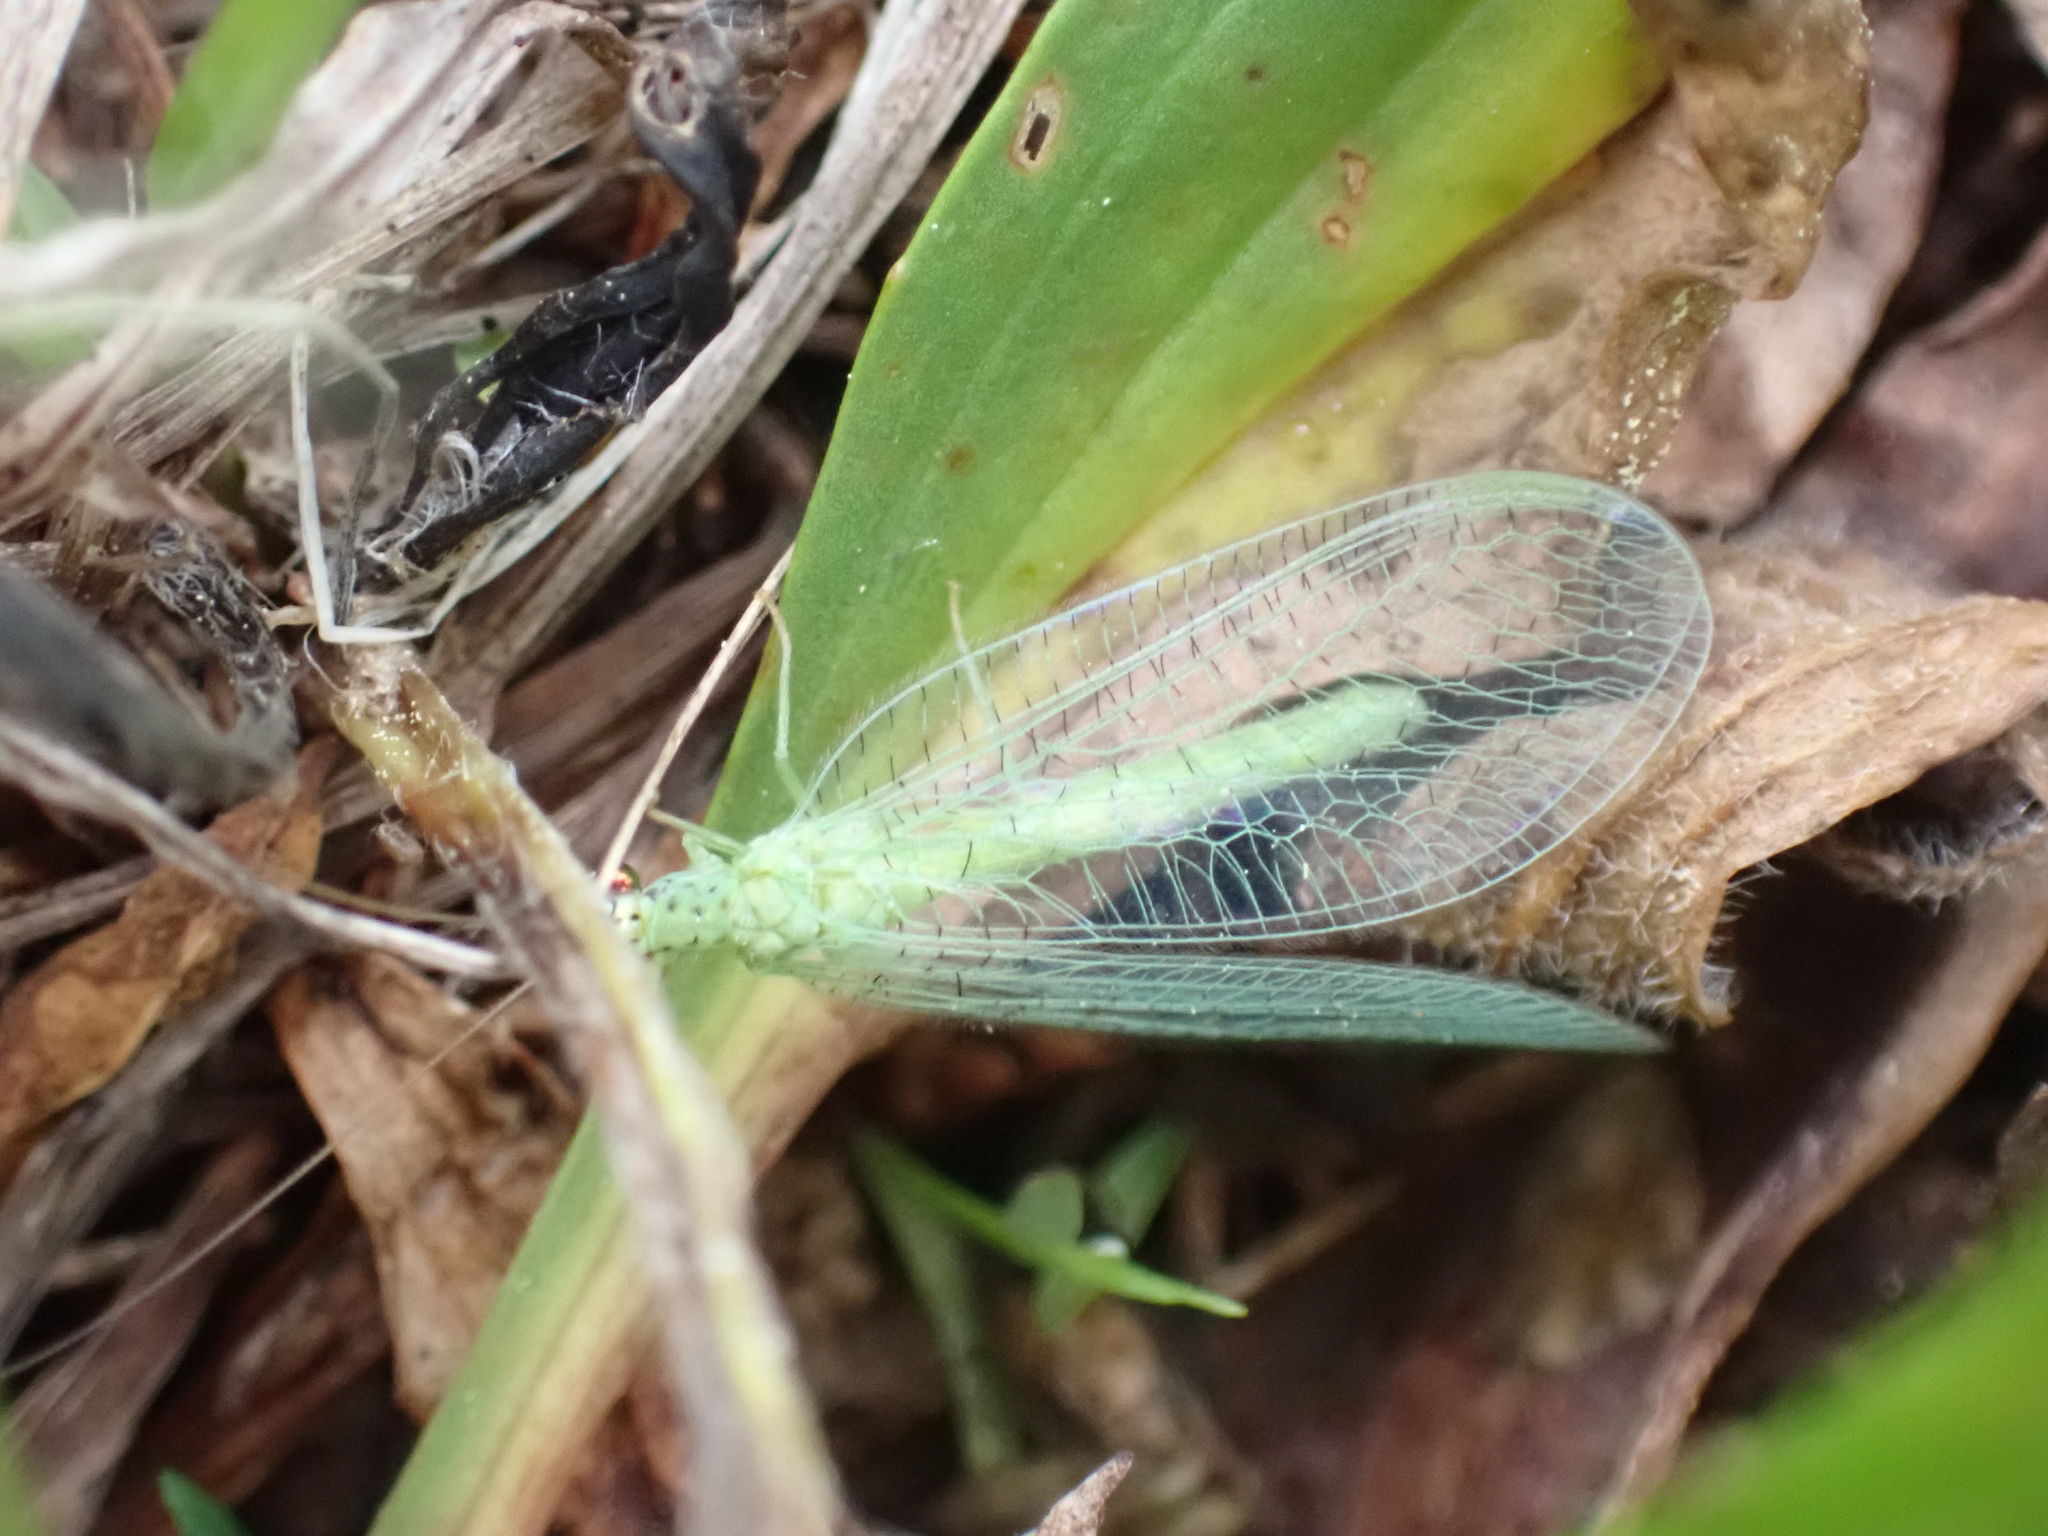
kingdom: Animalia
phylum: Arthropoda
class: Insecta
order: Neuroptera
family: Chrysopidae
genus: Chrysopa
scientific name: Chrysopa oculata
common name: Golden-eyed lacewing
